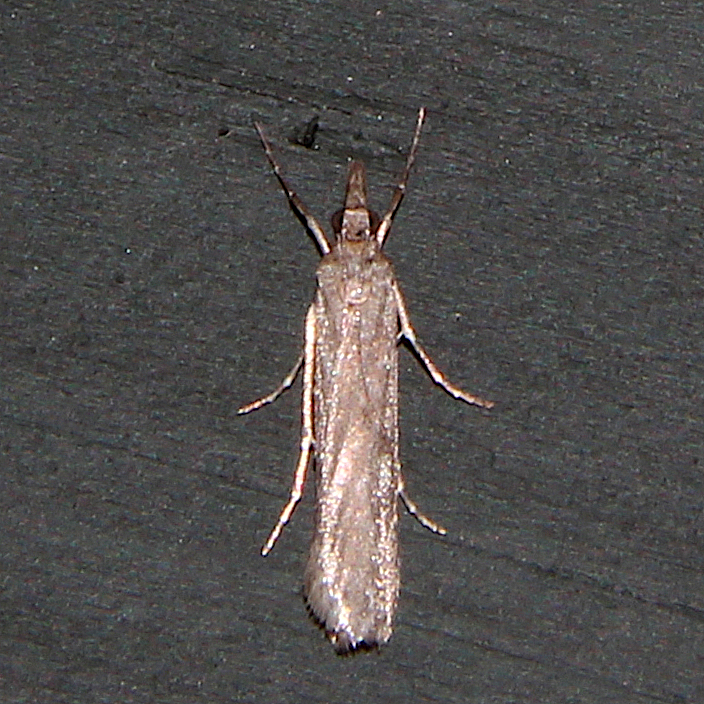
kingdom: Animalia
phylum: Arthropoda
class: Insecta
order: Lepidoptera
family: Crambidae
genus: Eudonia
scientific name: Eudonia leptalea
